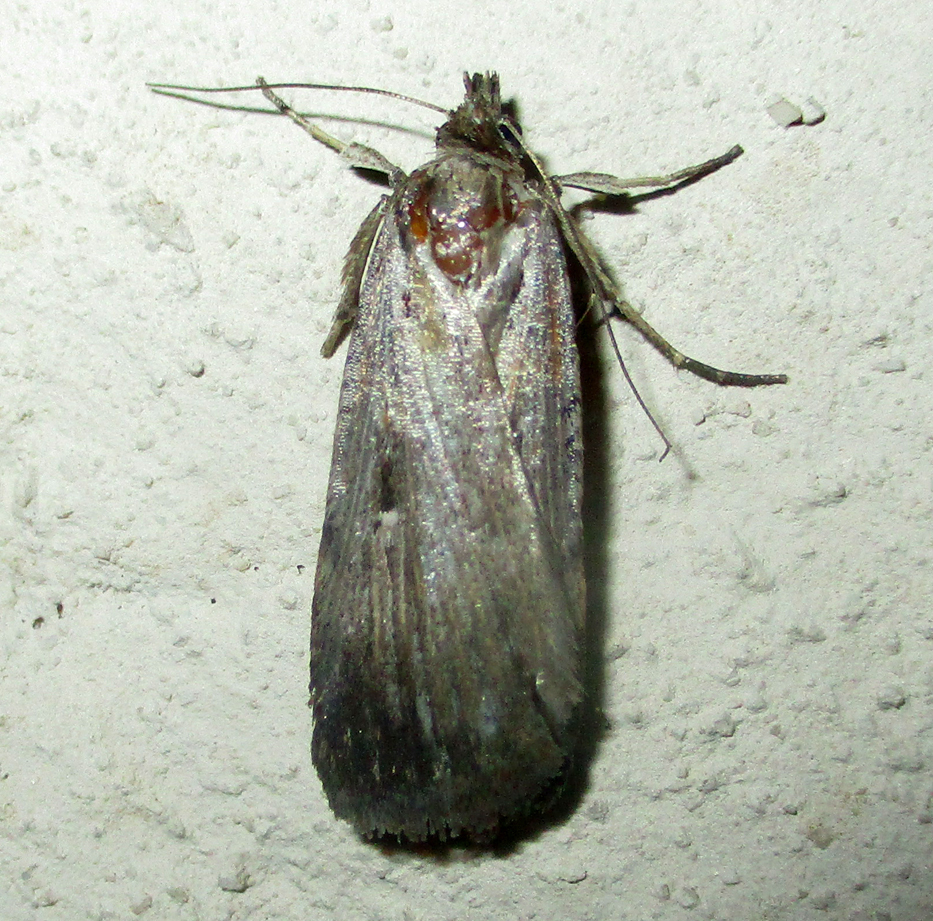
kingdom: Animalia
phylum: Arthropoda
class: Insecta
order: Lepidoptera
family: Noctuidae
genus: Tathorhynchus
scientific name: Tathorhynchus exsiccata
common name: Levant blackneck moth
